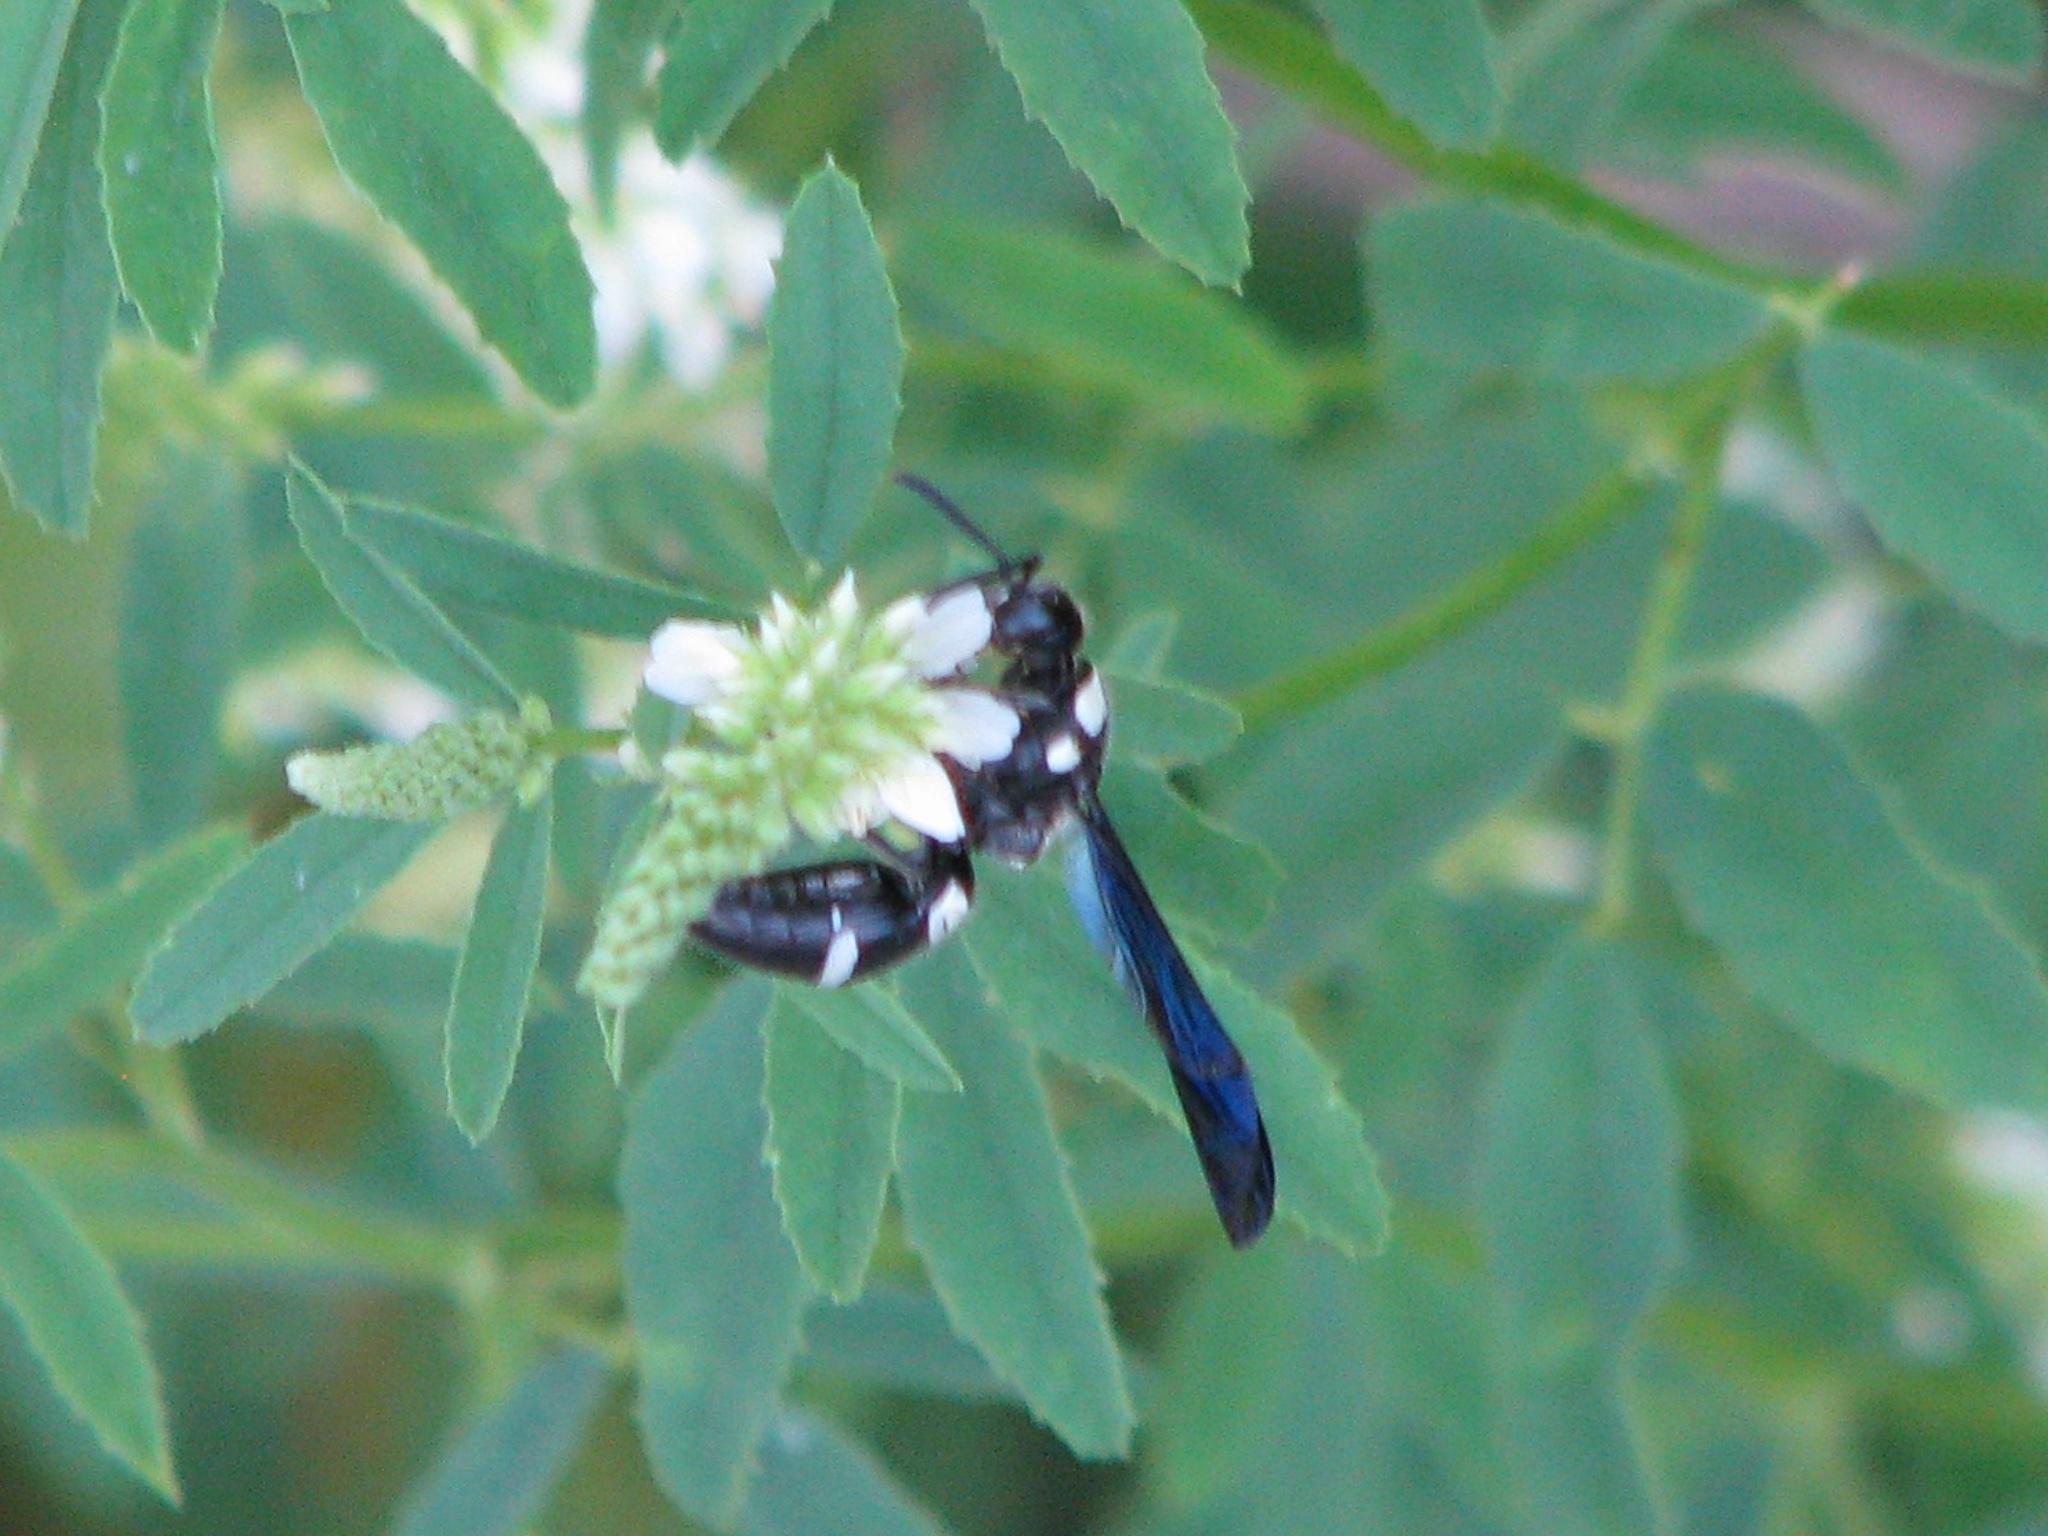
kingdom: Animalia
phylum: Arthropoda
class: Insecta
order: Hymenoptera
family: Eumenidae
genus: Pseudodynerus
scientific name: Pseudodynerus quadrisectus
